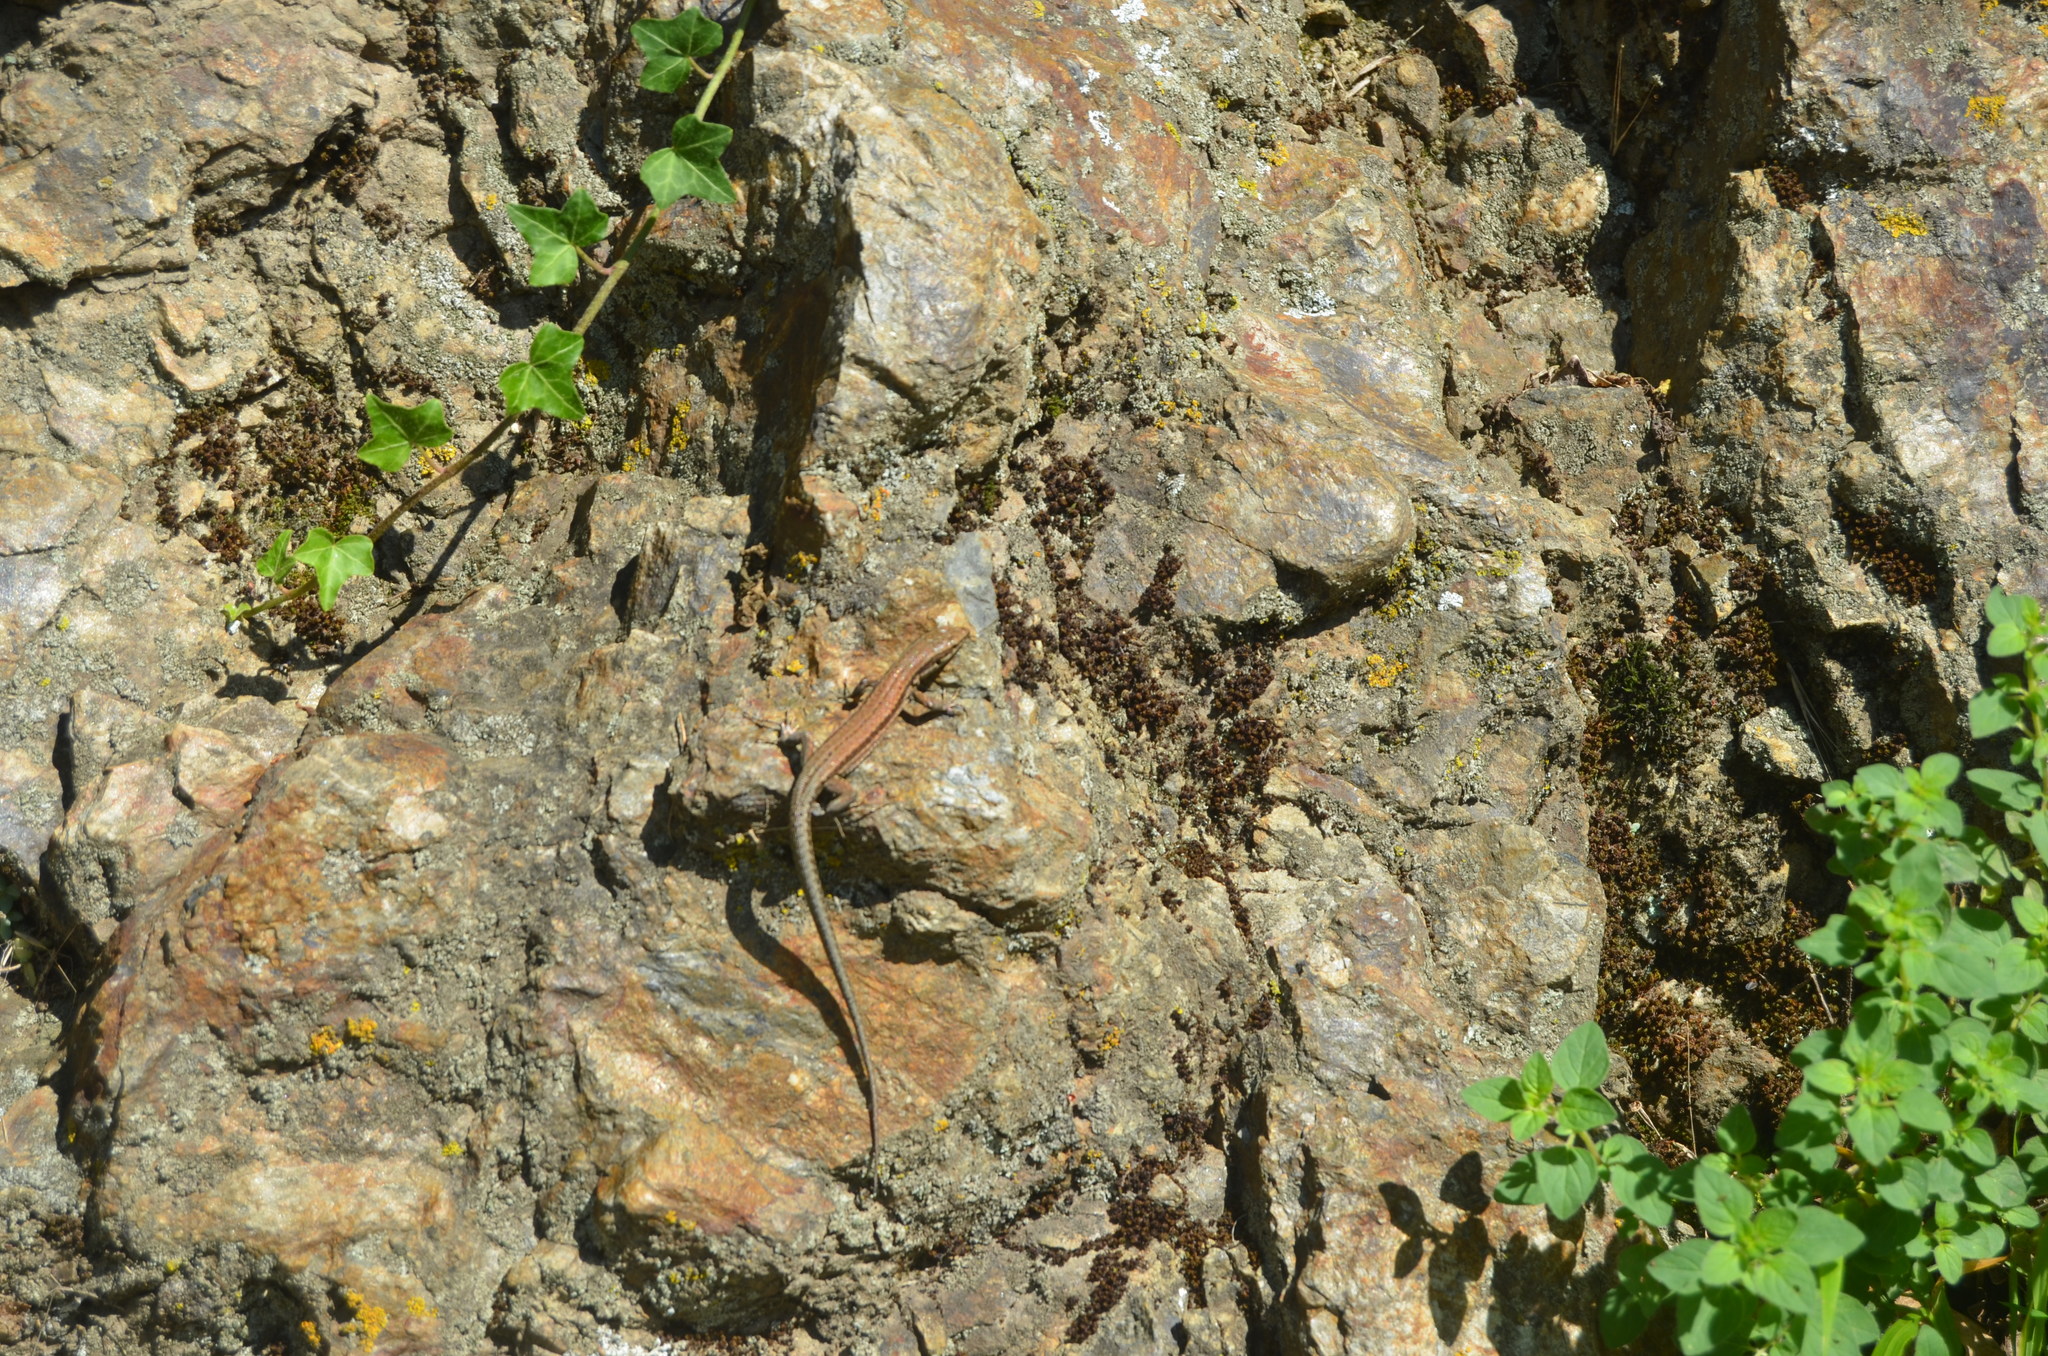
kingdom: Animalia
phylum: Chordata
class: Squamata
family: Lacertidae
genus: Podarcis
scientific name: Podarcis muralis
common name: Common wall lizard
